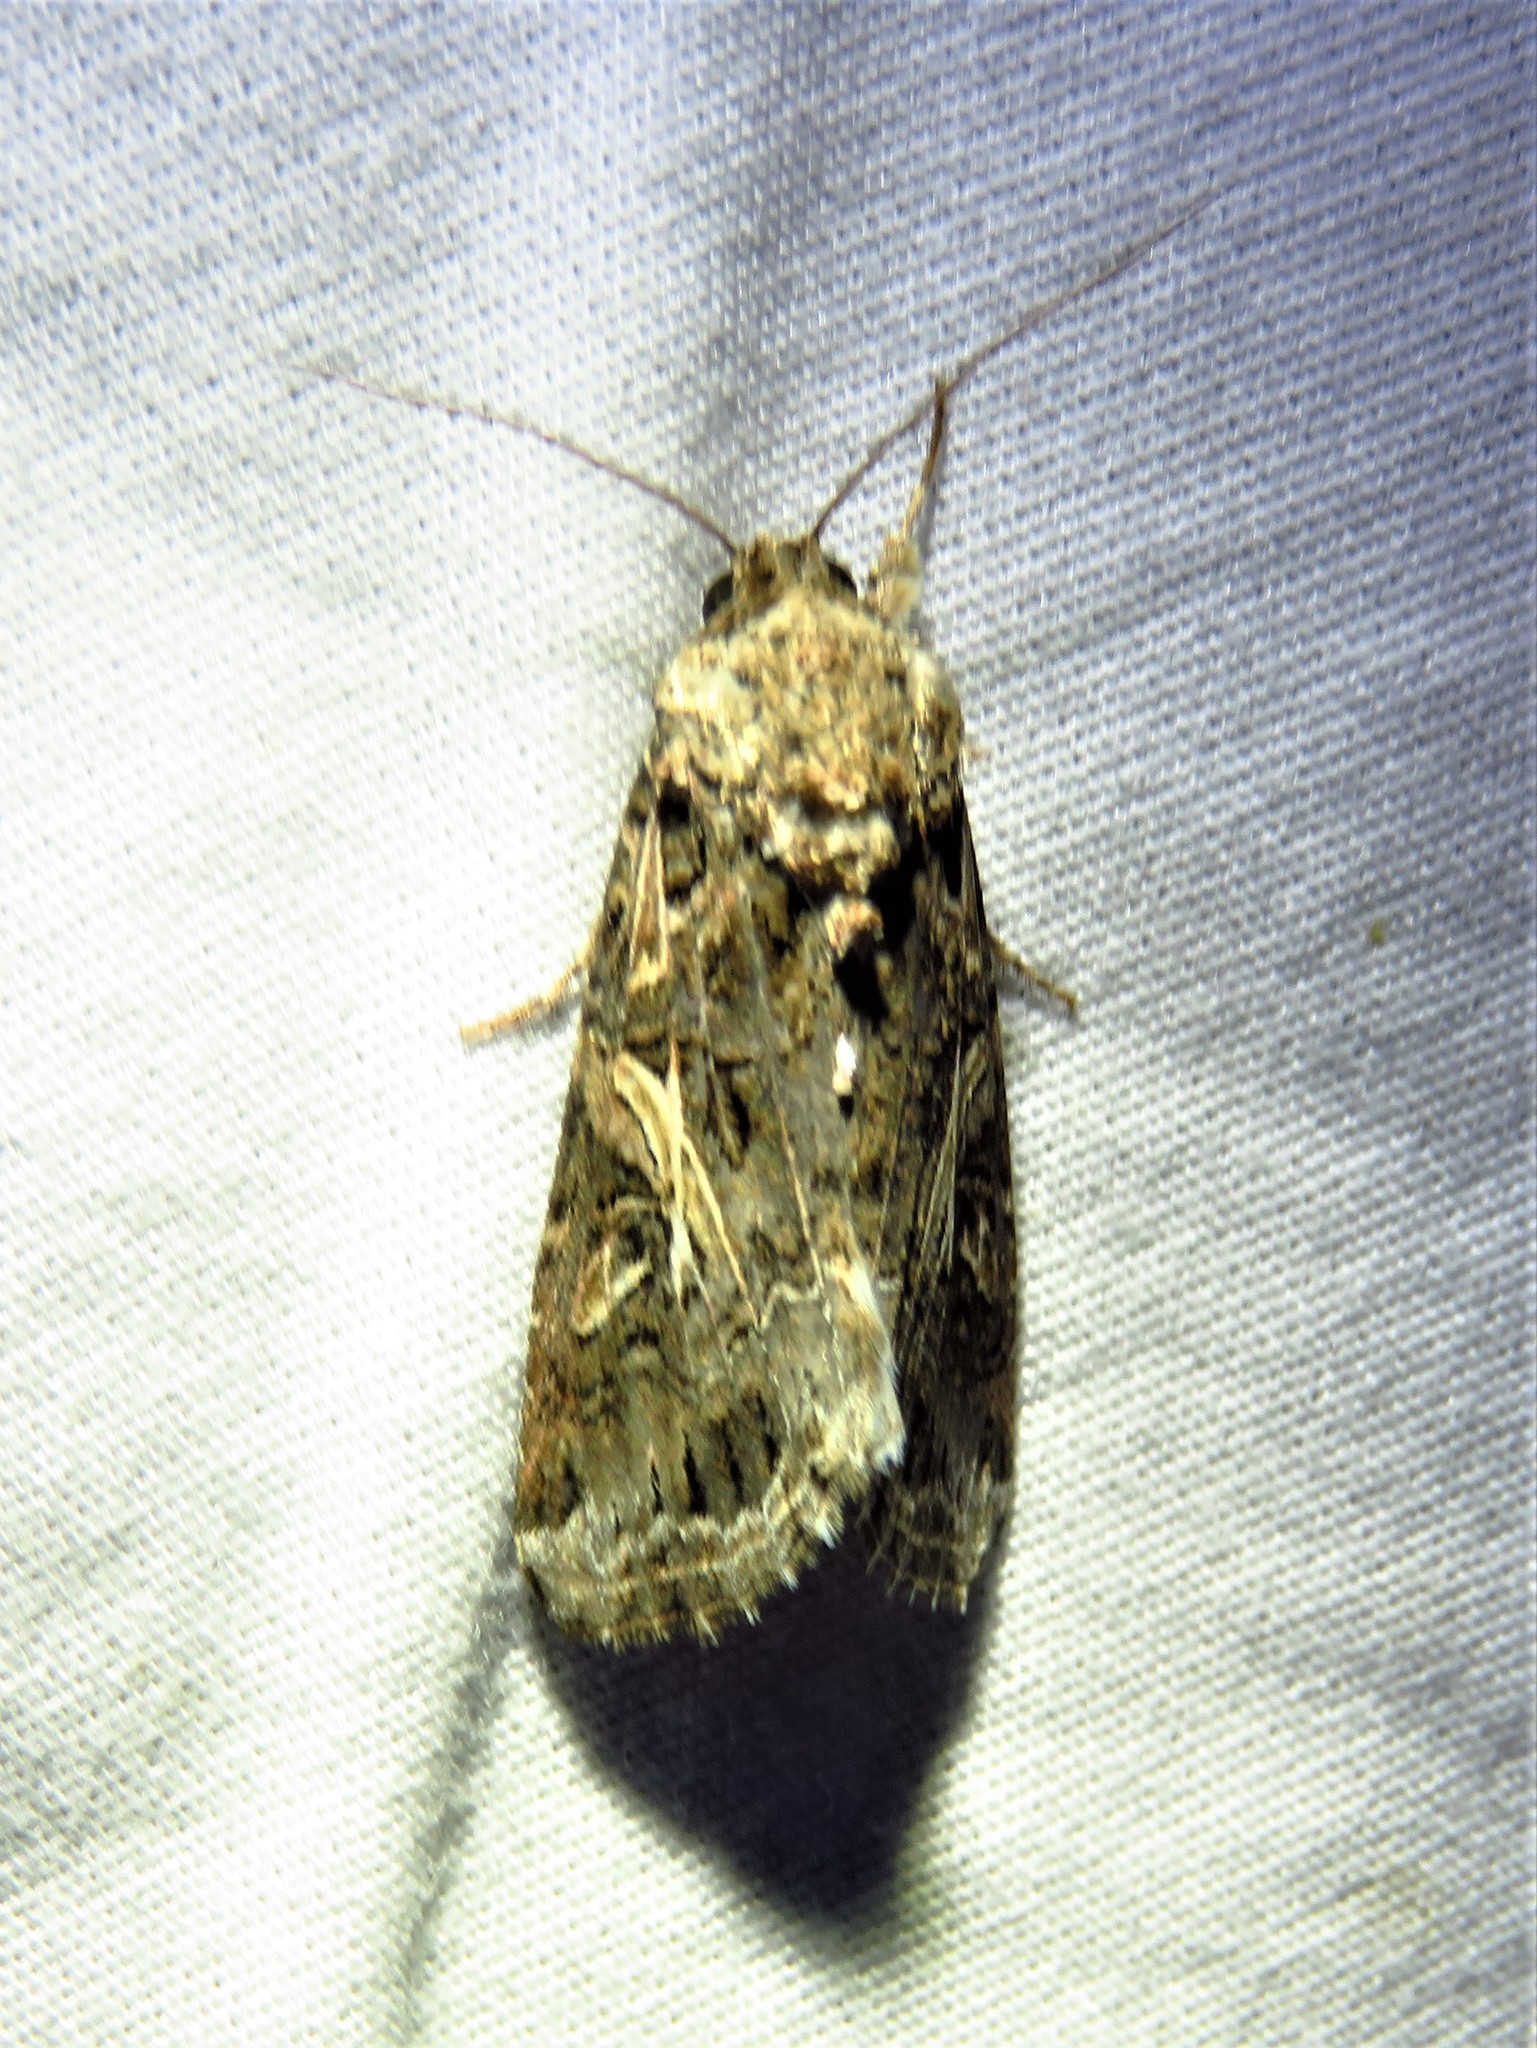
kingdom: Animalia
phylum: Arthropoda
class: Insecta
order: Lepidoptera
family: Noctuidae
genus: Spodoptera
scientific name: Spodoptera ornithogalli
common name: Yellow-striped armyworm
